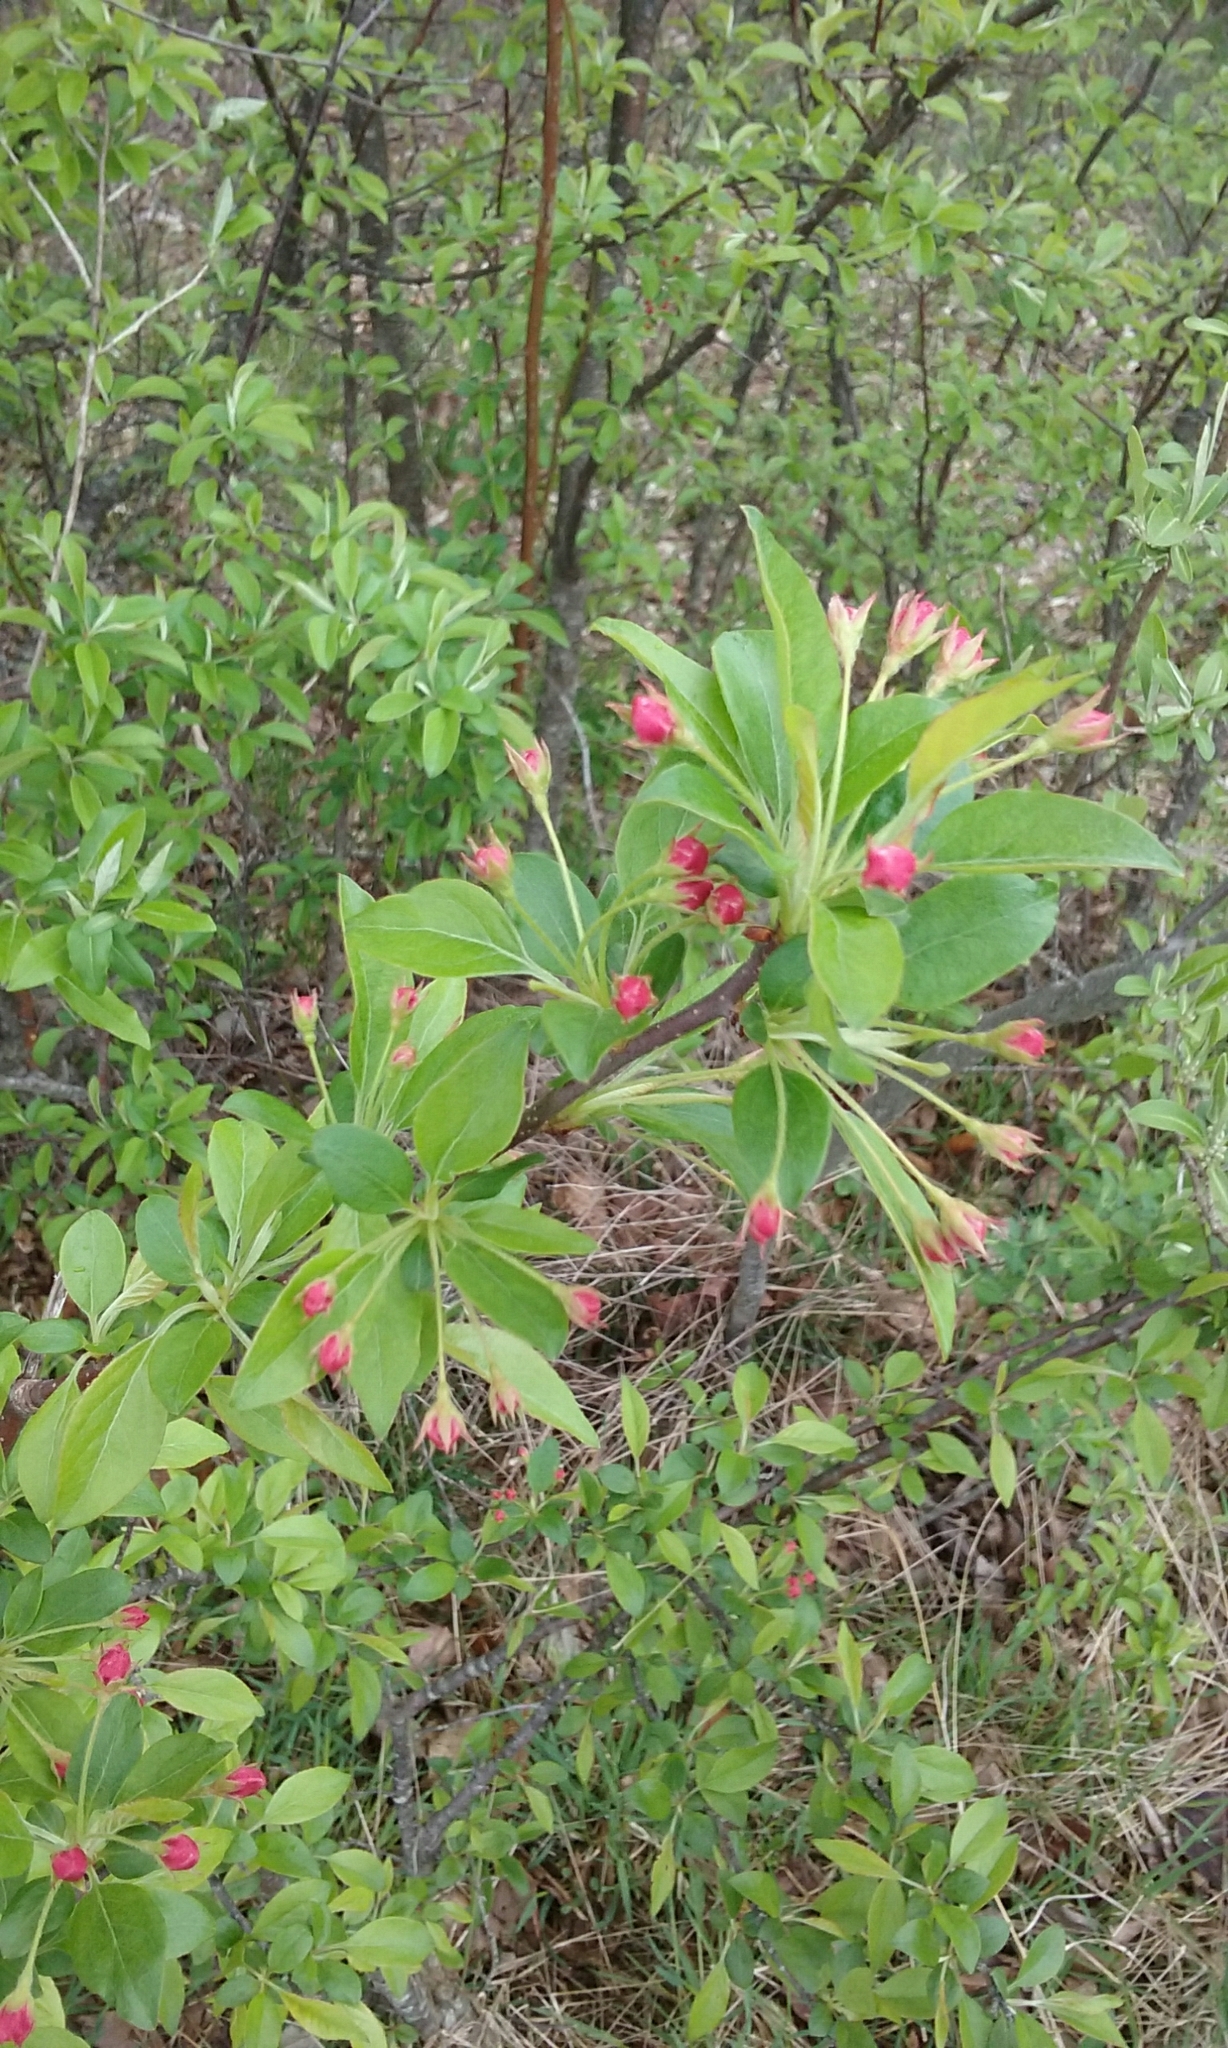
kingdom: Plantae
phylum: Tracheophyta
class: Magnoliopsida
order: Rosales
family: Rosaceae
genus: Malus
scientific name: Malus
